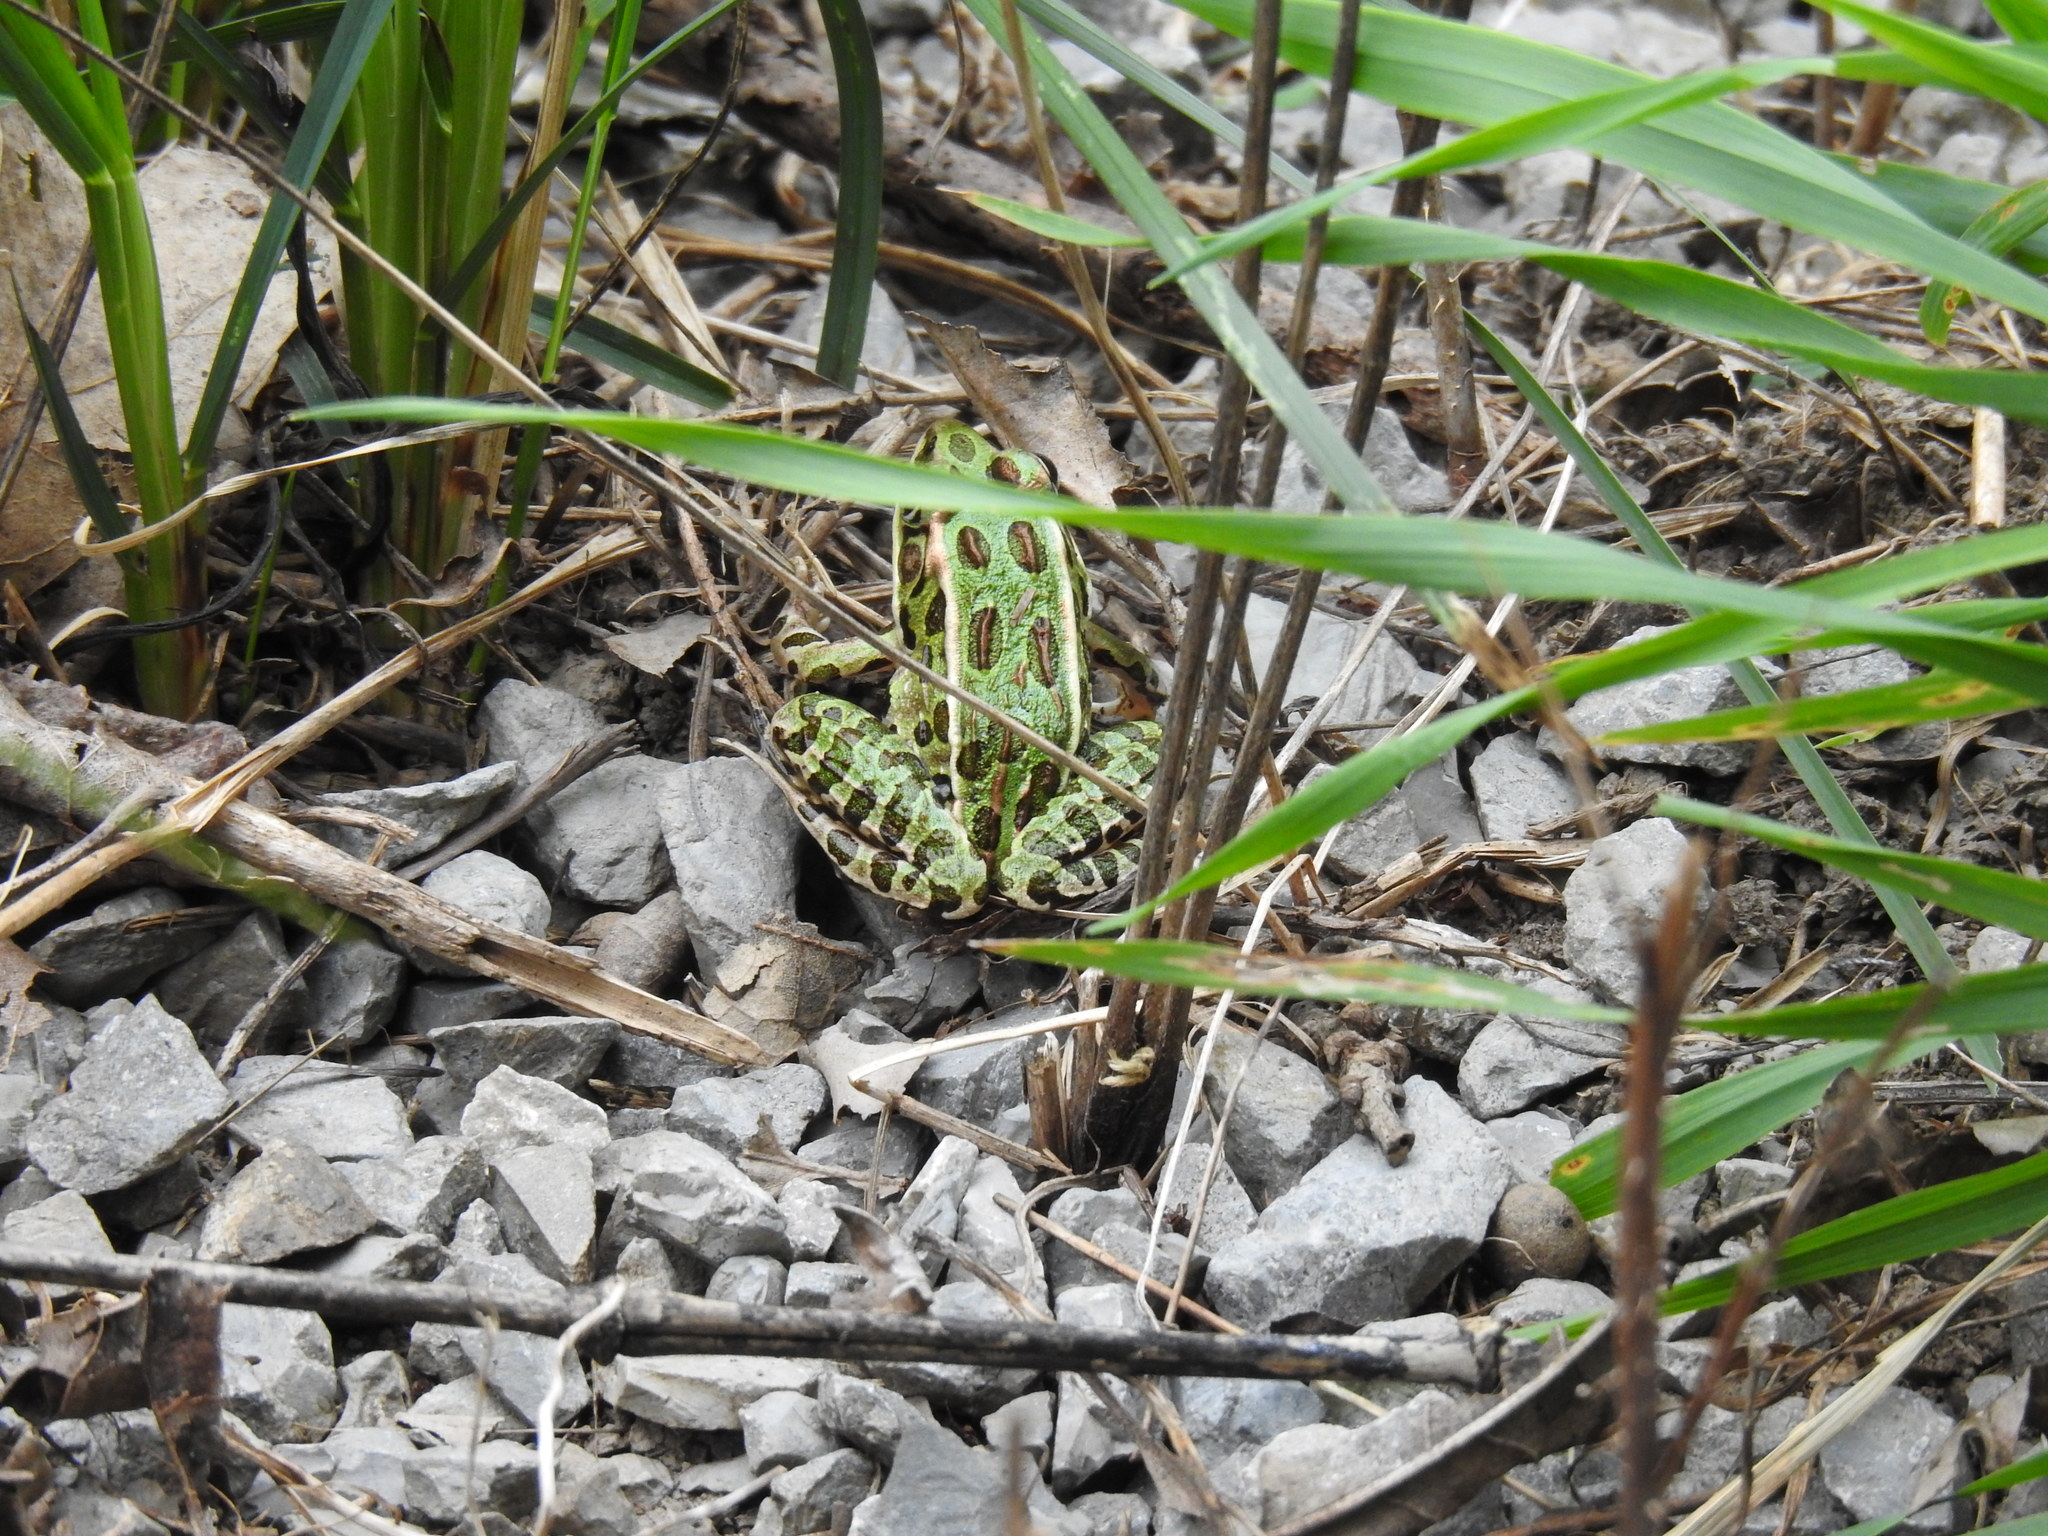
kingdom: Animalia
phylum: Chordata
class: Amphibia
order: Anura
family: Ranidae
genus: Lithobates
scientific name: Lithobates pipiens
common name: Northern leopard frog
